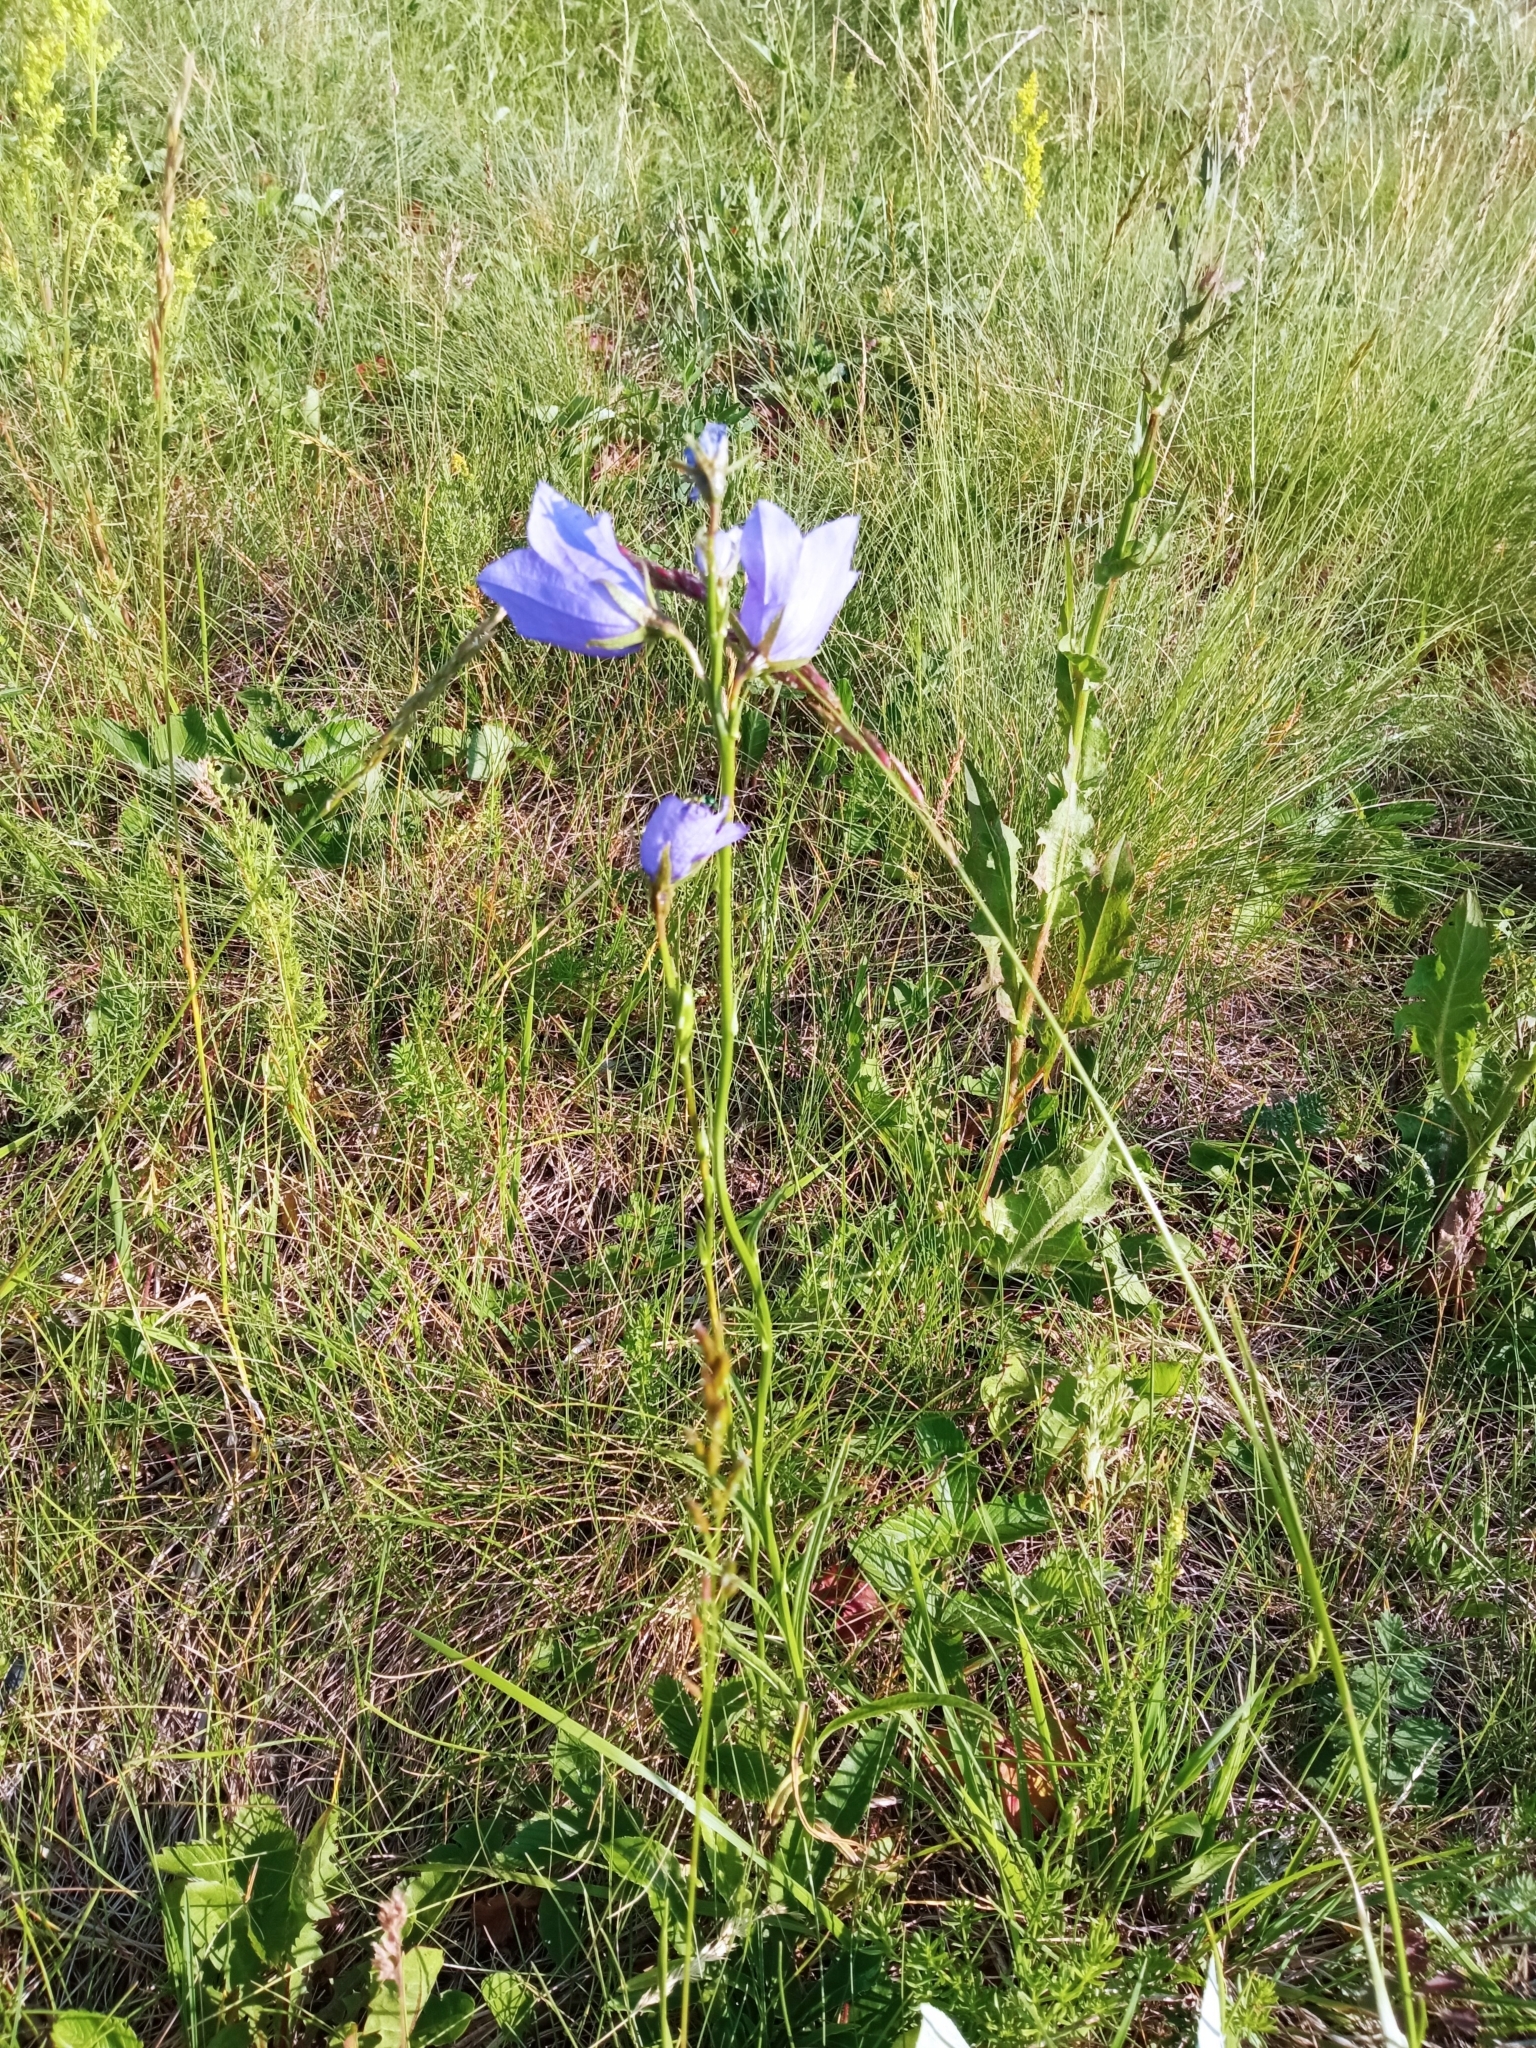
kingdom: Plantae
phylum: Tracheophyta
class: Magnoliopsida
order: Asterales
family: Campanulaceae
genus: Campanula
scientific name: Campanula persicifolia
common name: Peach-leaved bellflower
